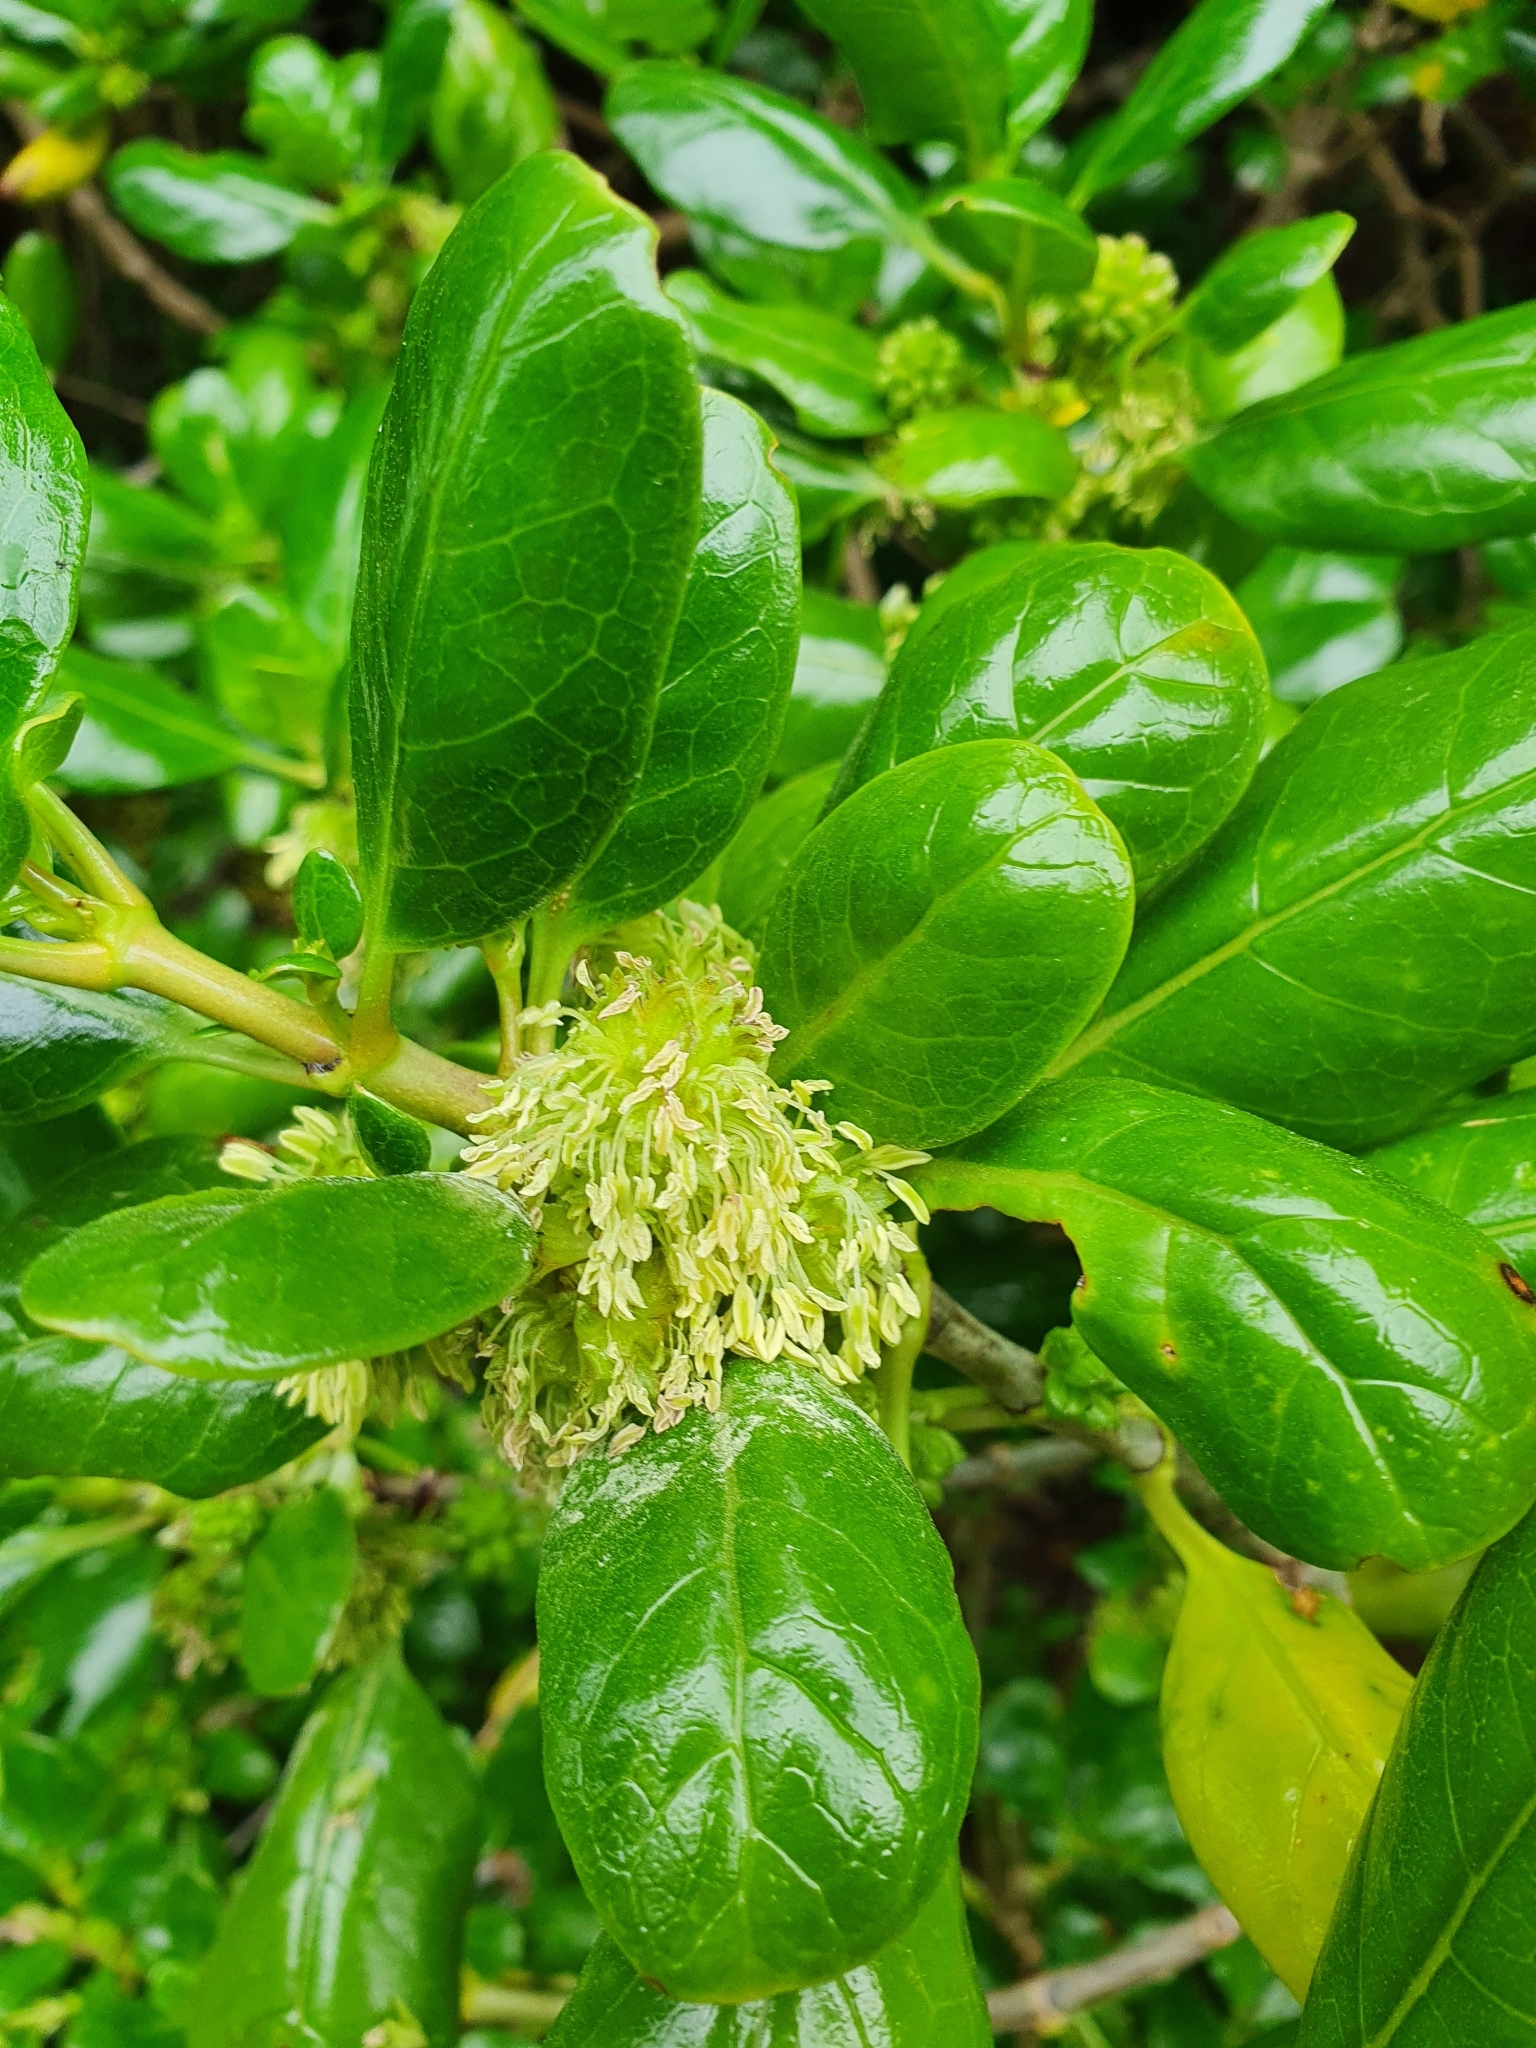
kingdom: Plantae
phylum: Tracheophyta
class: Magnoliopsida
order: Gentianales
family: Rubiaceae
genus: Coprosma
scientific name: Coprosma repens
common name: Tree bedstraw
